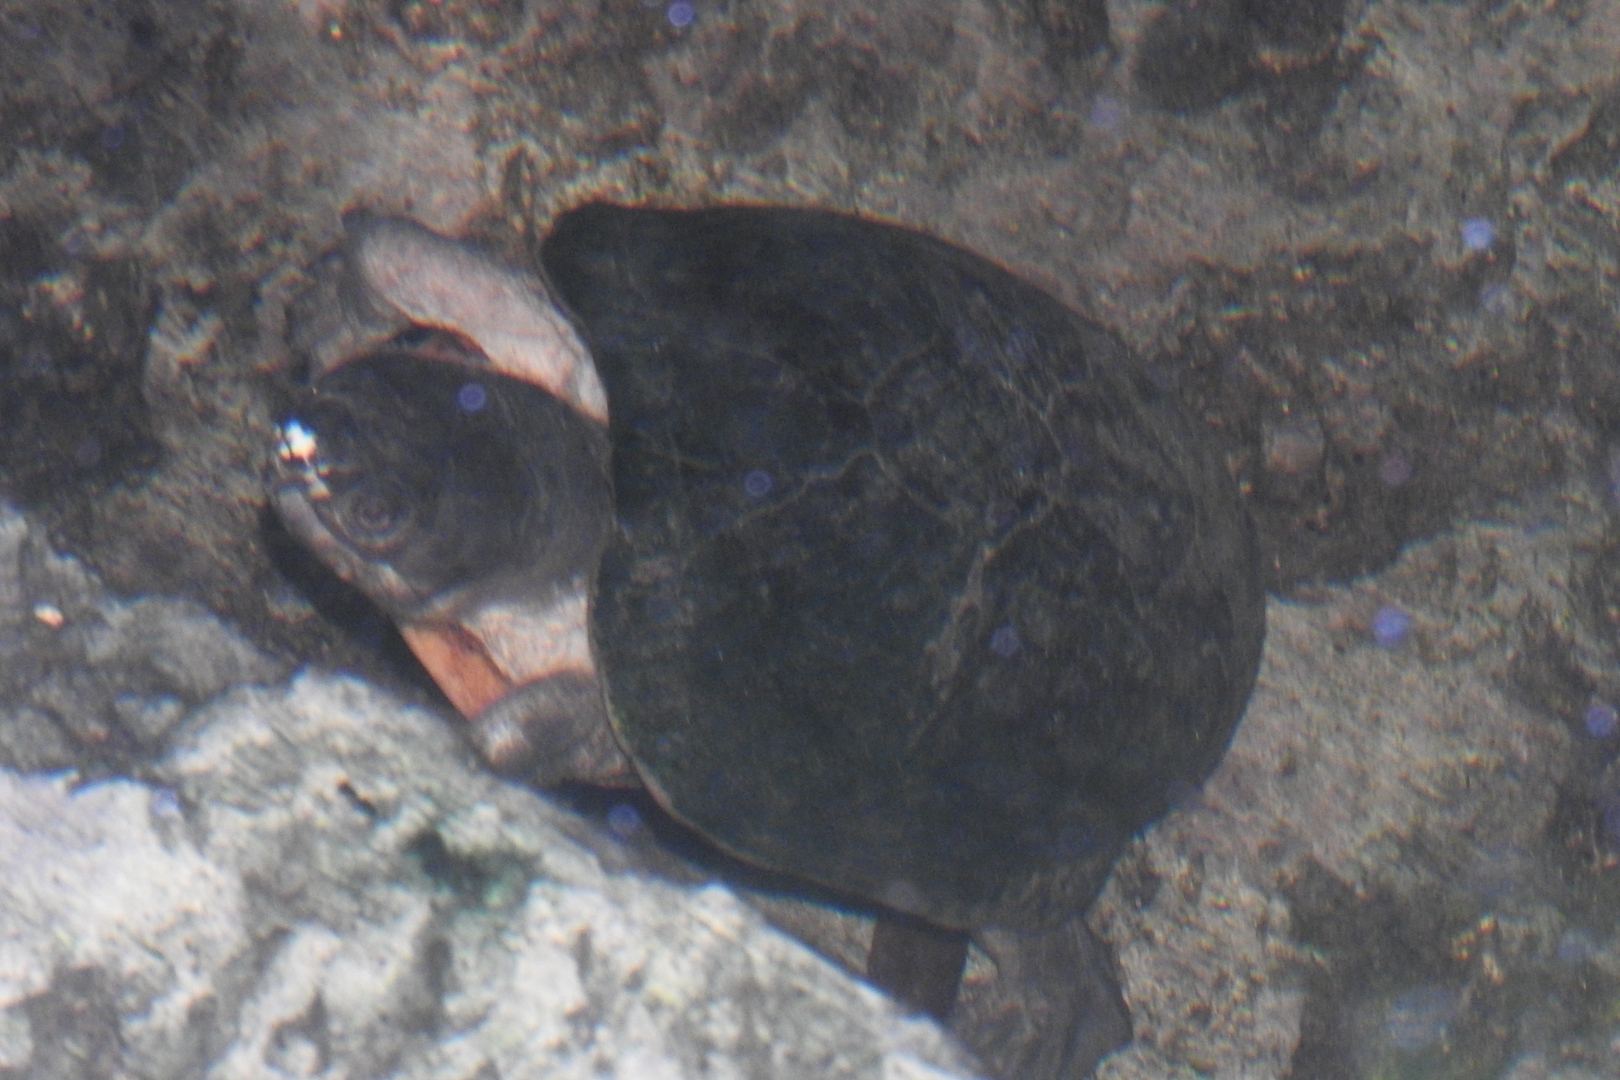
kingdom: Animalia
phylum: Chordata
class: Testudines
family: Kinosternidae
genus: Kinosternon
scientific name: Kinosternon scorpioides
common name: Scorpion mud turtle
